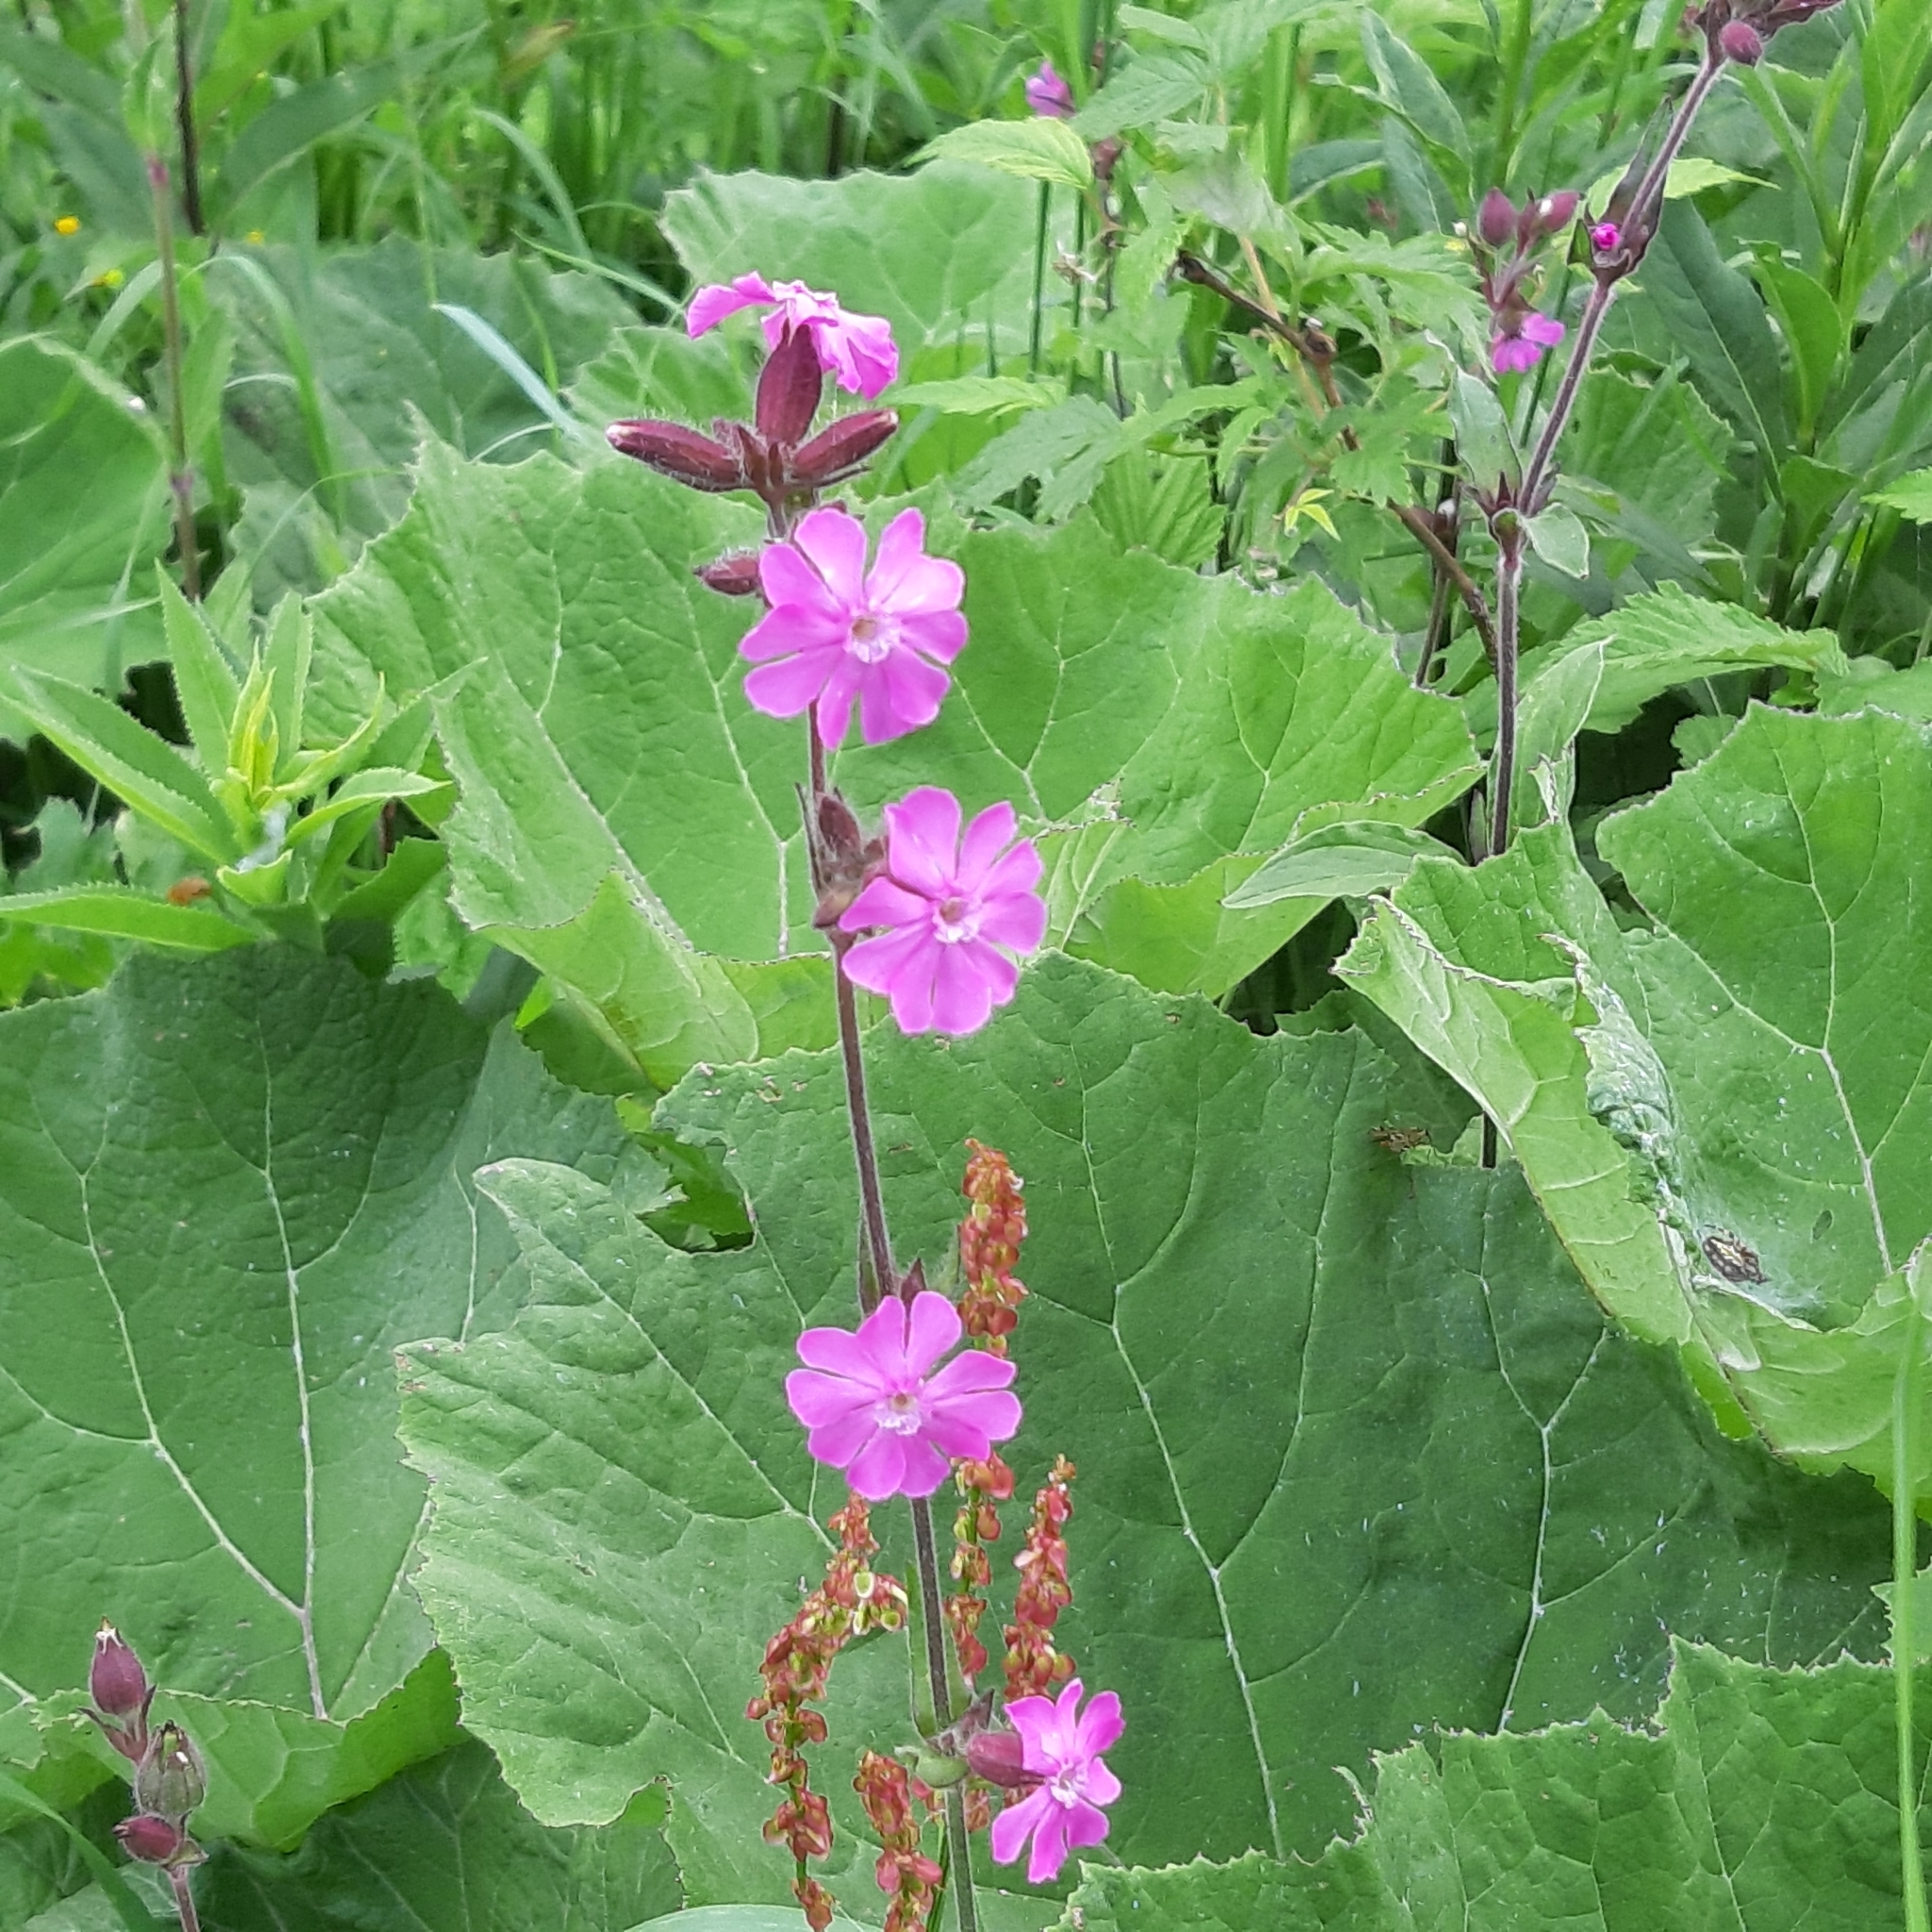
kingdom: Plantae
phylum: Tracheophyta
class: Magnoliopsida
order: Caryophyllales
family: Caryophyllaceae
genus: Silene
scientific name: Silene dioica
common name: Red campion
